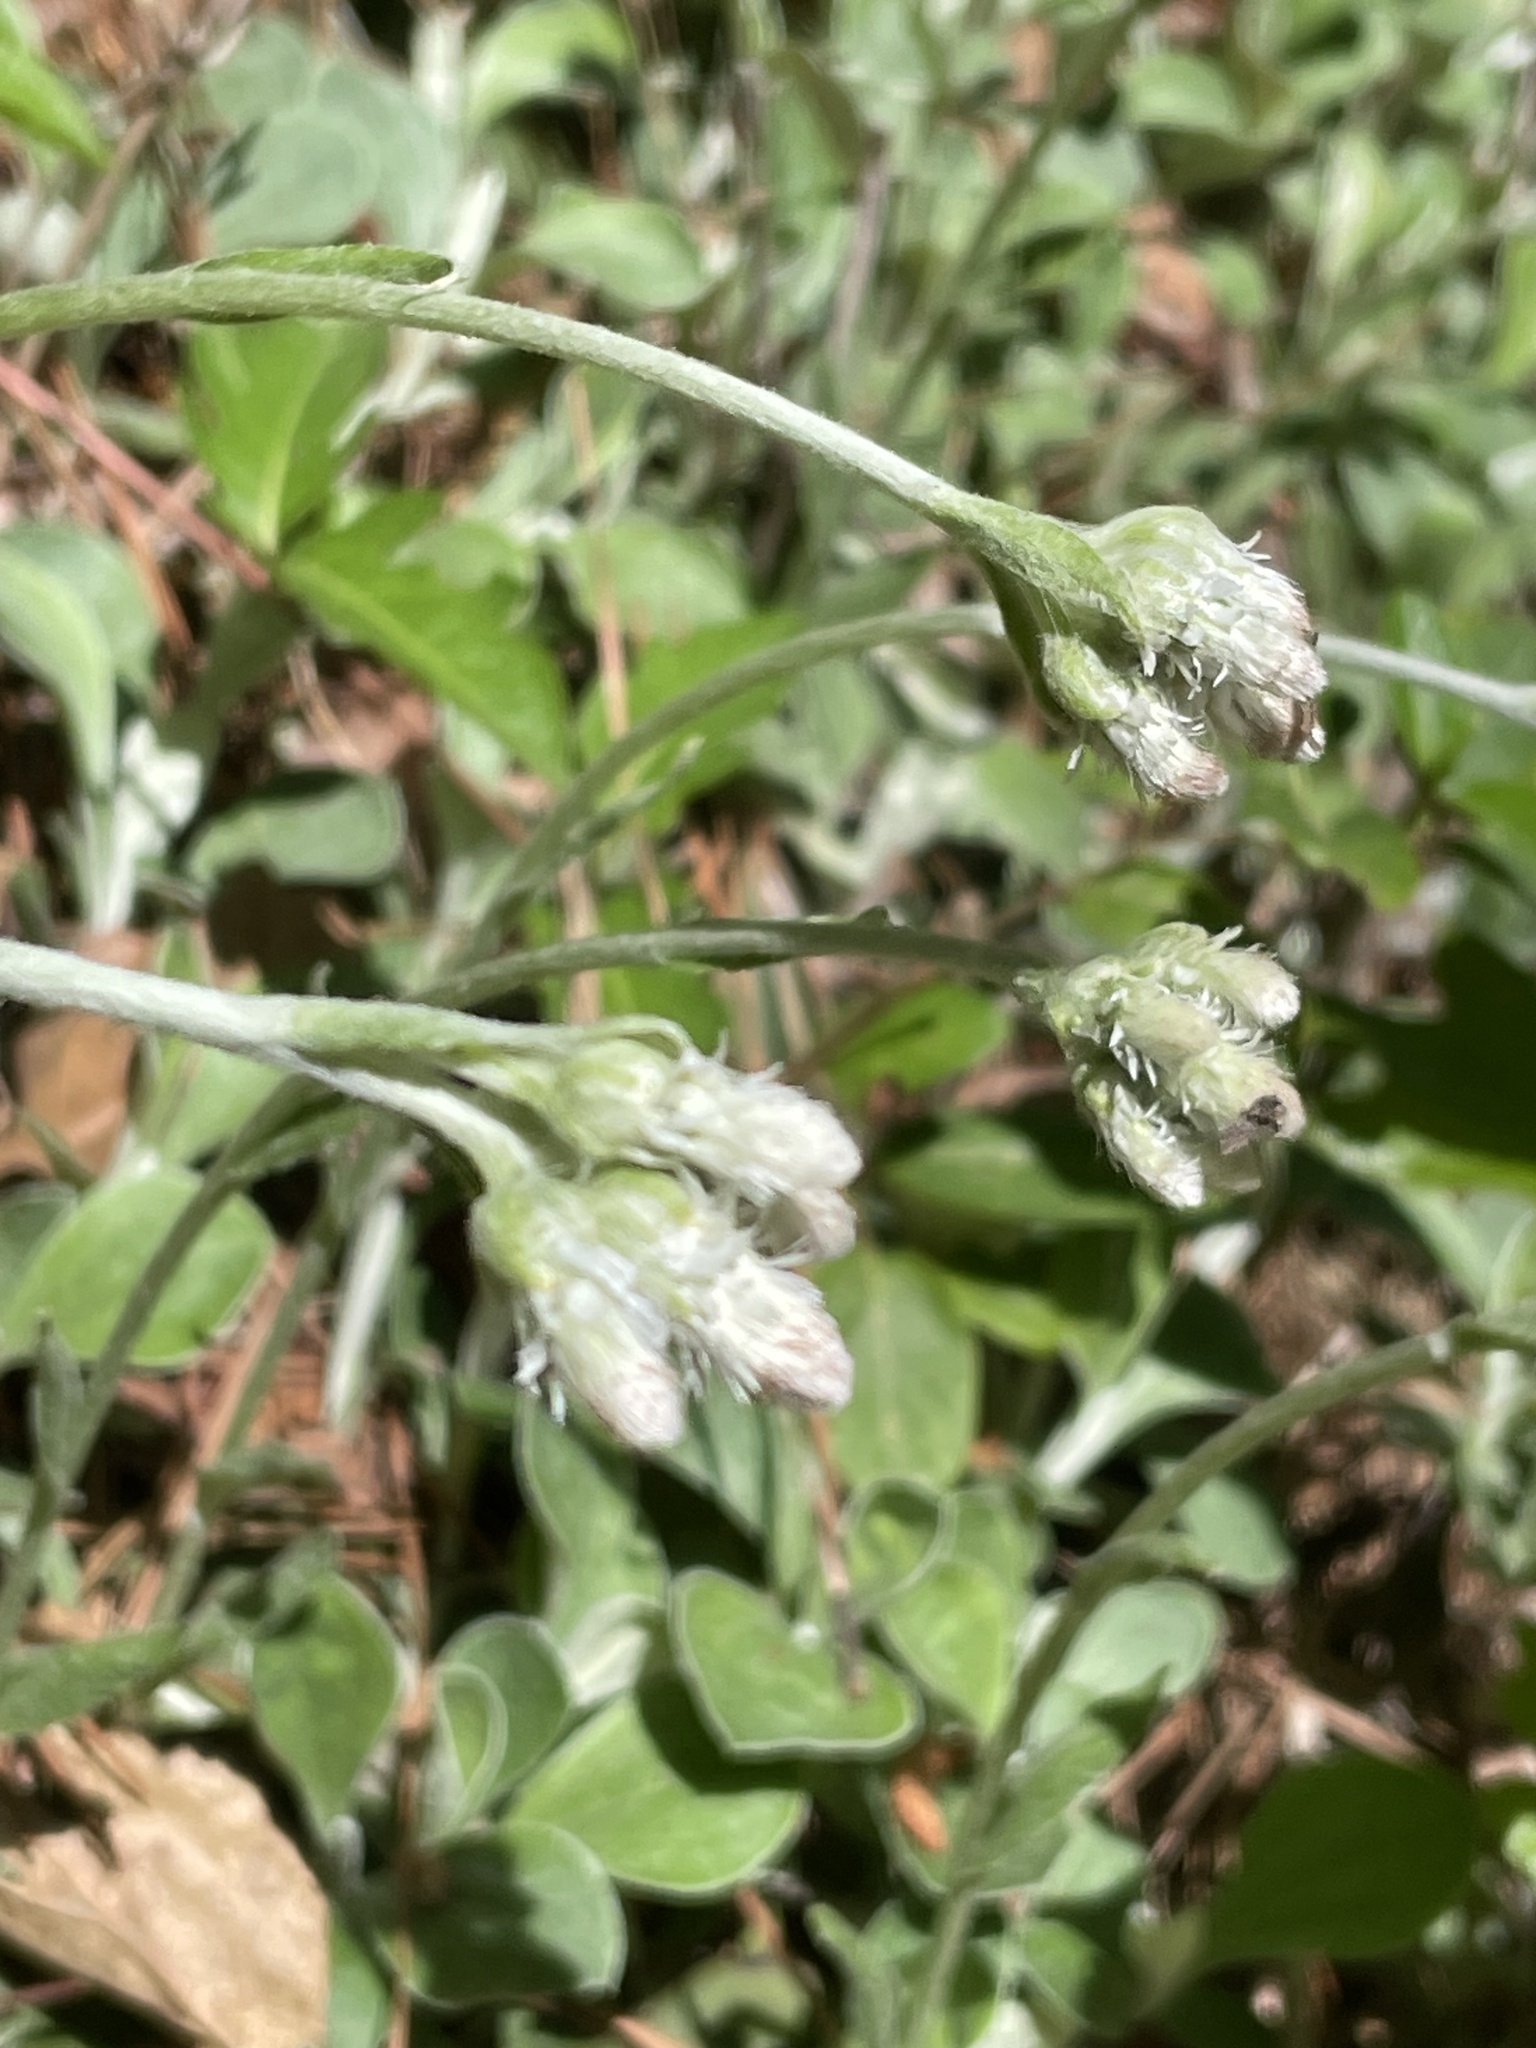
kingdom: Plantae
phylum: Tracheophyta
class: Magnoliopsida
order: Asterales
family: Asteraceae
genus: Antennaria
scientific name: Antennaria parlinii
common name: Parlin's pussytoes
